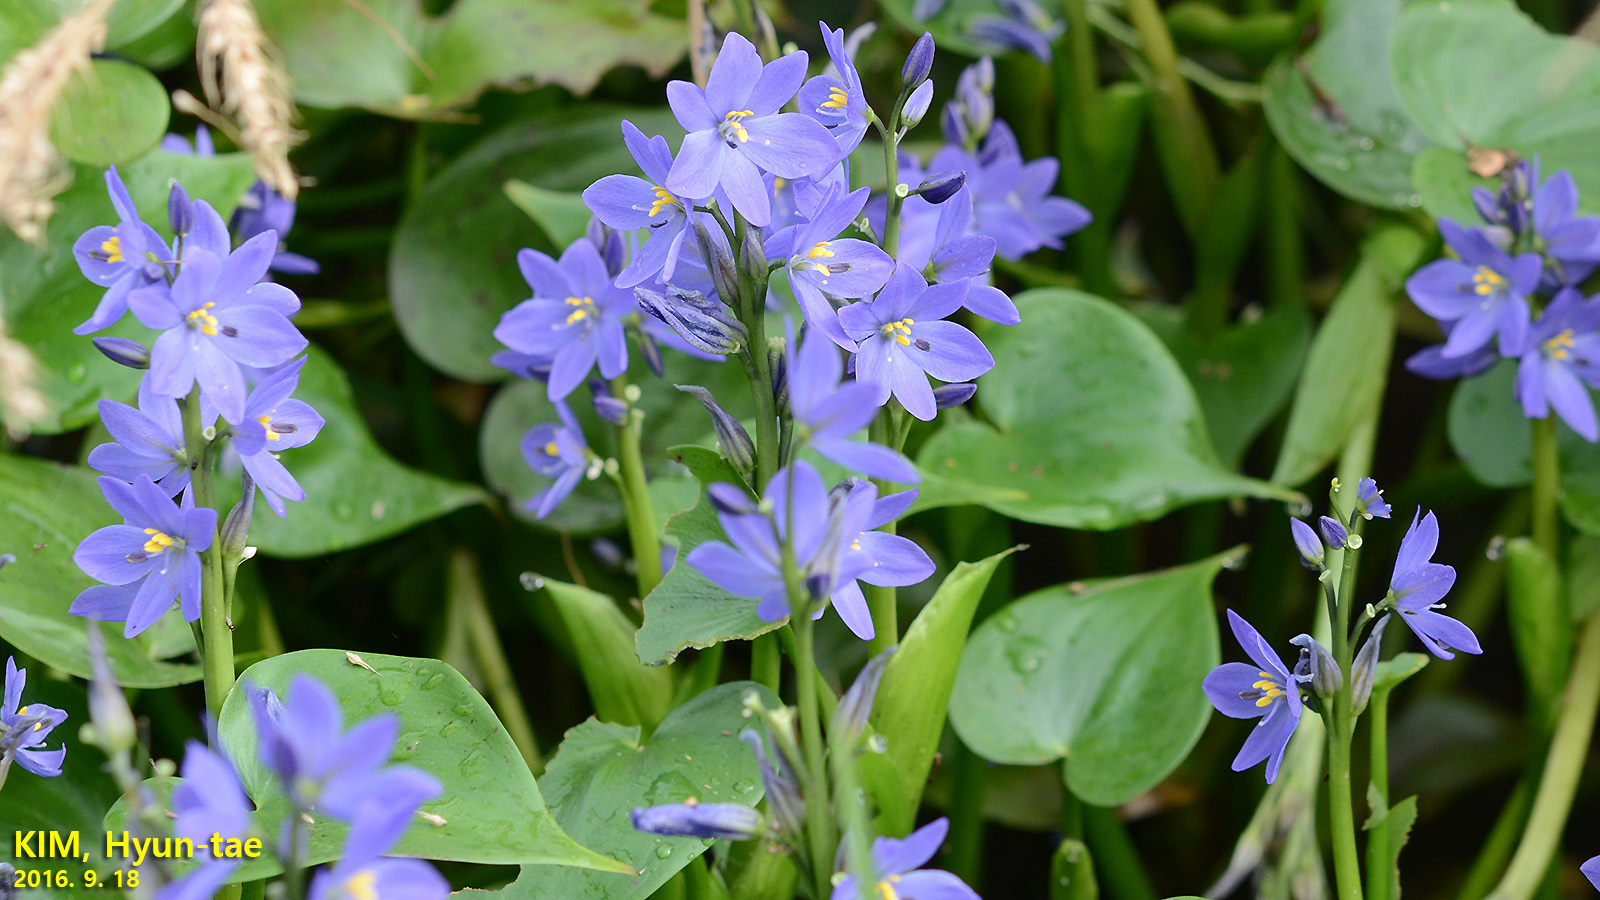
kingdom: Plantae
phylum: Tracheophyta
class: Liliopsida
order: Commelinales
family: Pontederiaceae
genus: Pontederia
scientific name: Pontederia korsakowii
